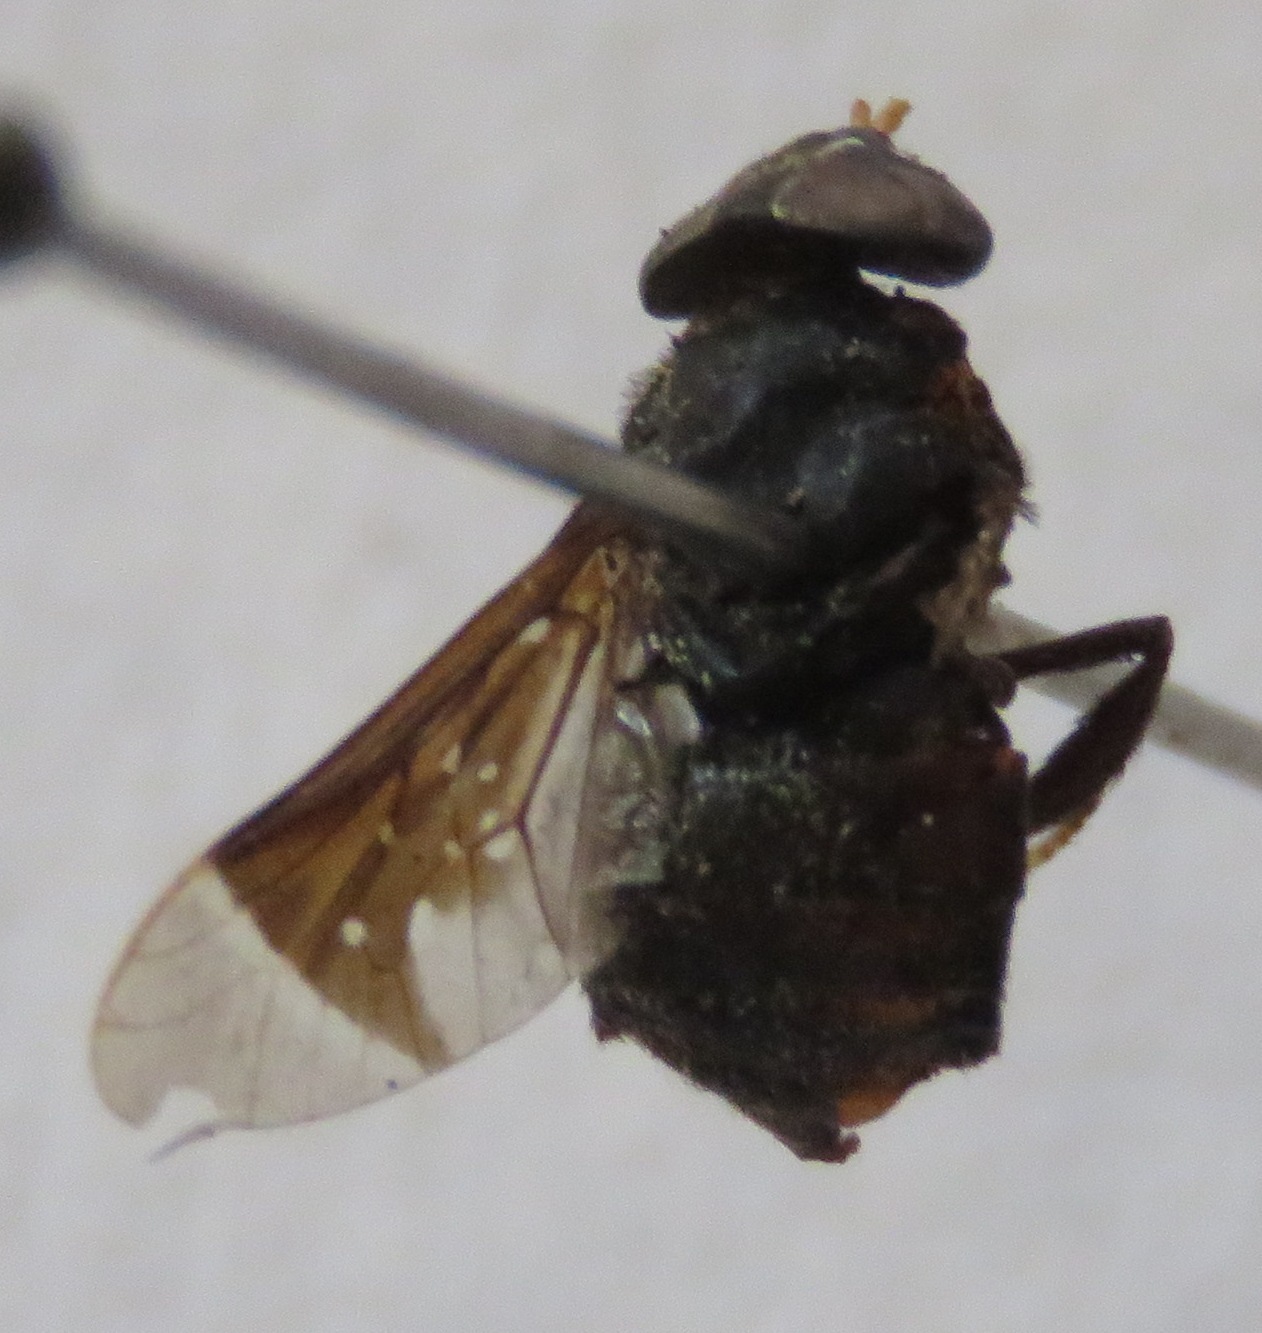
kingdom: Animalia
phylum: Arthropoda
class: Insecta
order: Diptera
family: Tabanidae
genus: Lepiselaga
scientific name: Lepiselaga crassipes
